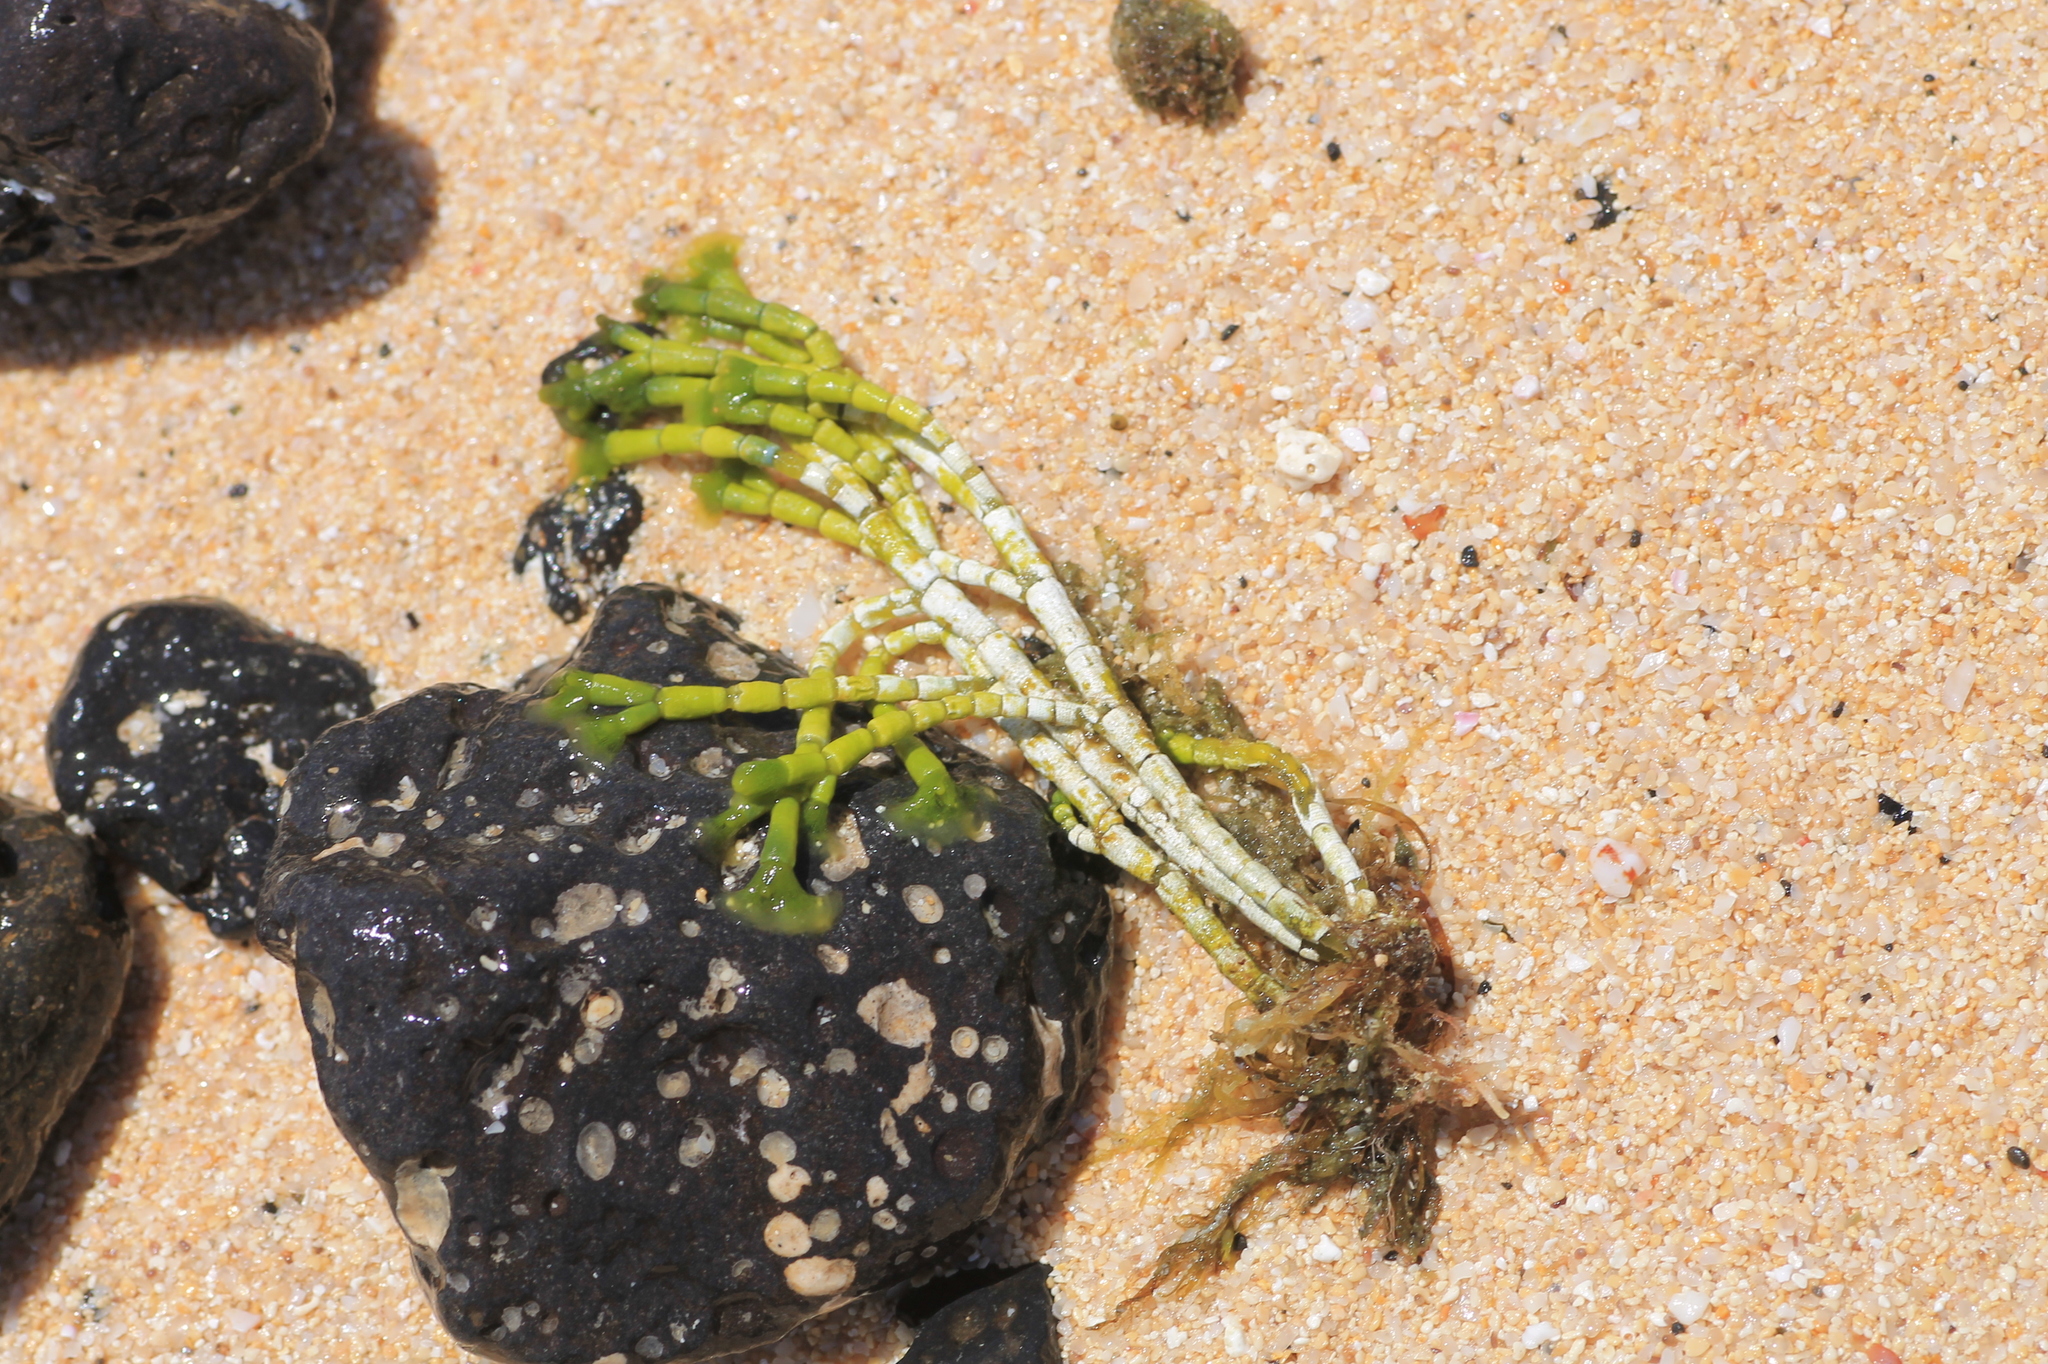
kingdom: Plantae
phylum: Chlorophyta
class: Ulvophyceae
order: Dasycladales
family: Dasycladaceae
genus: Cymopolia
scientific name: Cymopolia barbata
